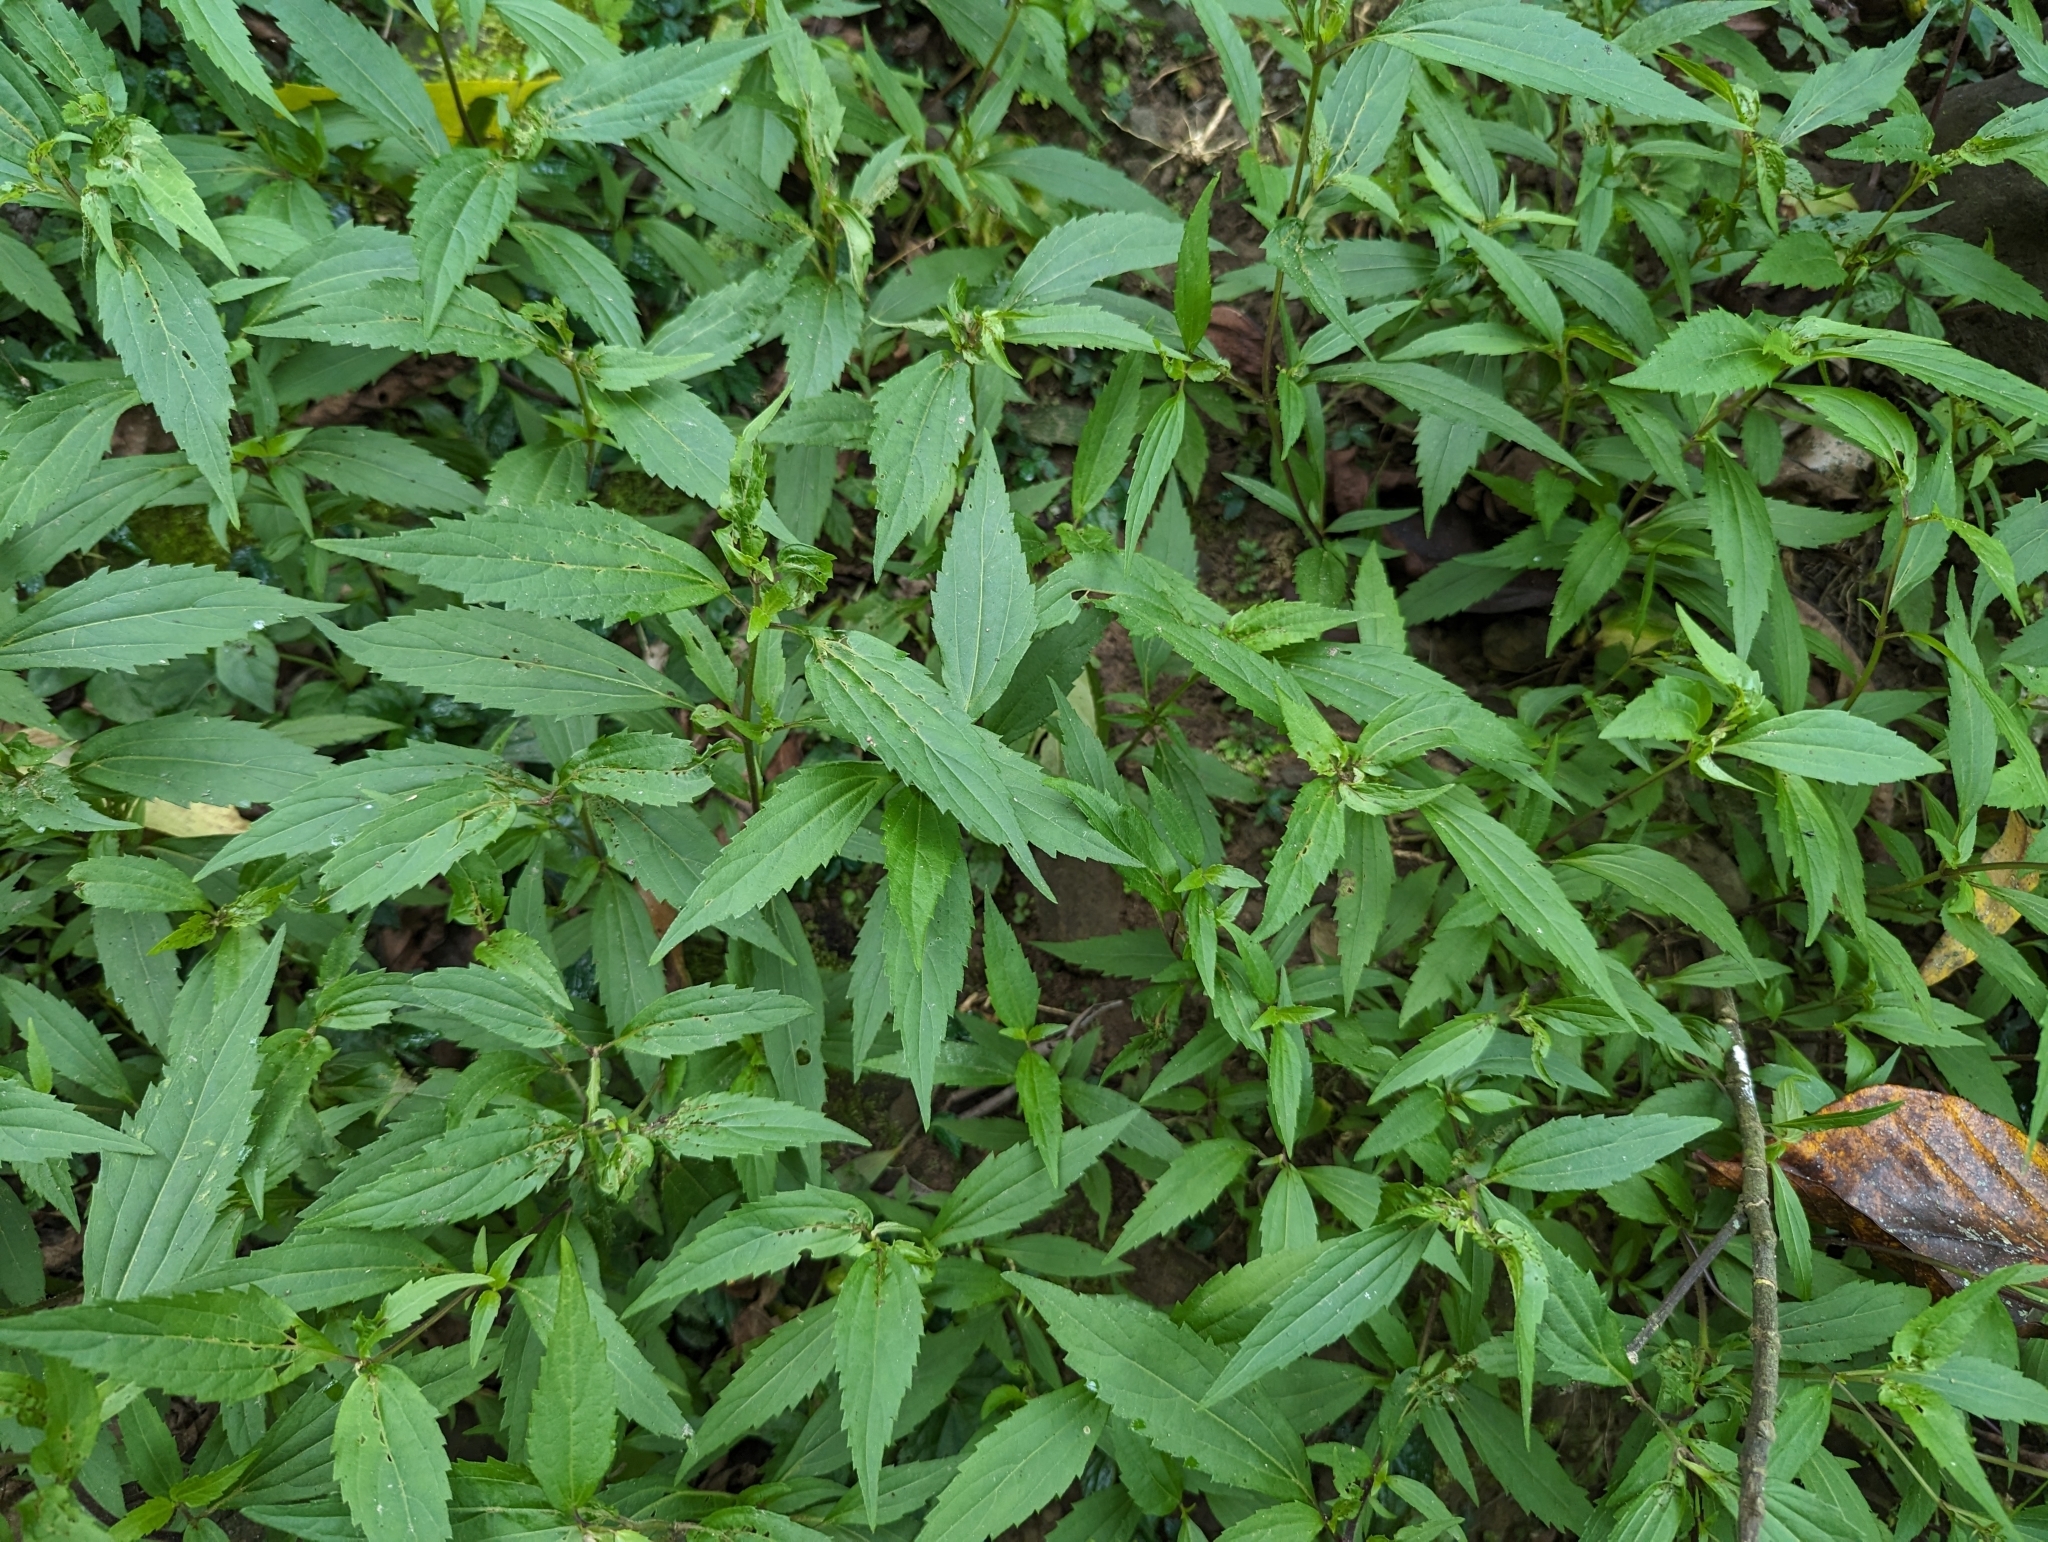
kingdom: Plantae
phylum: Tracheophyta
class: Magnoliopsida
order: Asterales
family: Asteraceae
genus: Ageratina
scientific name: Ageratina riparia
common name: Creeping croftonweed
